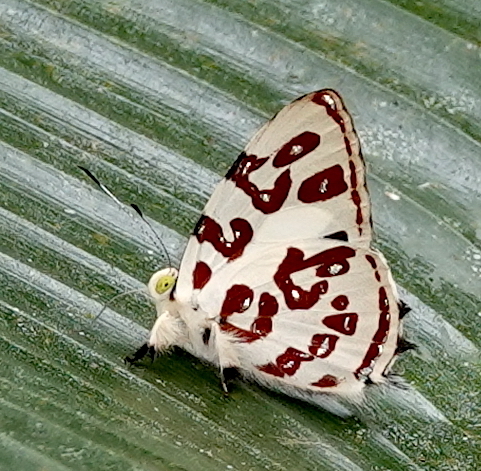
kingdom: Animalia
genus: Anteros
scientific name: Anteros kupris
